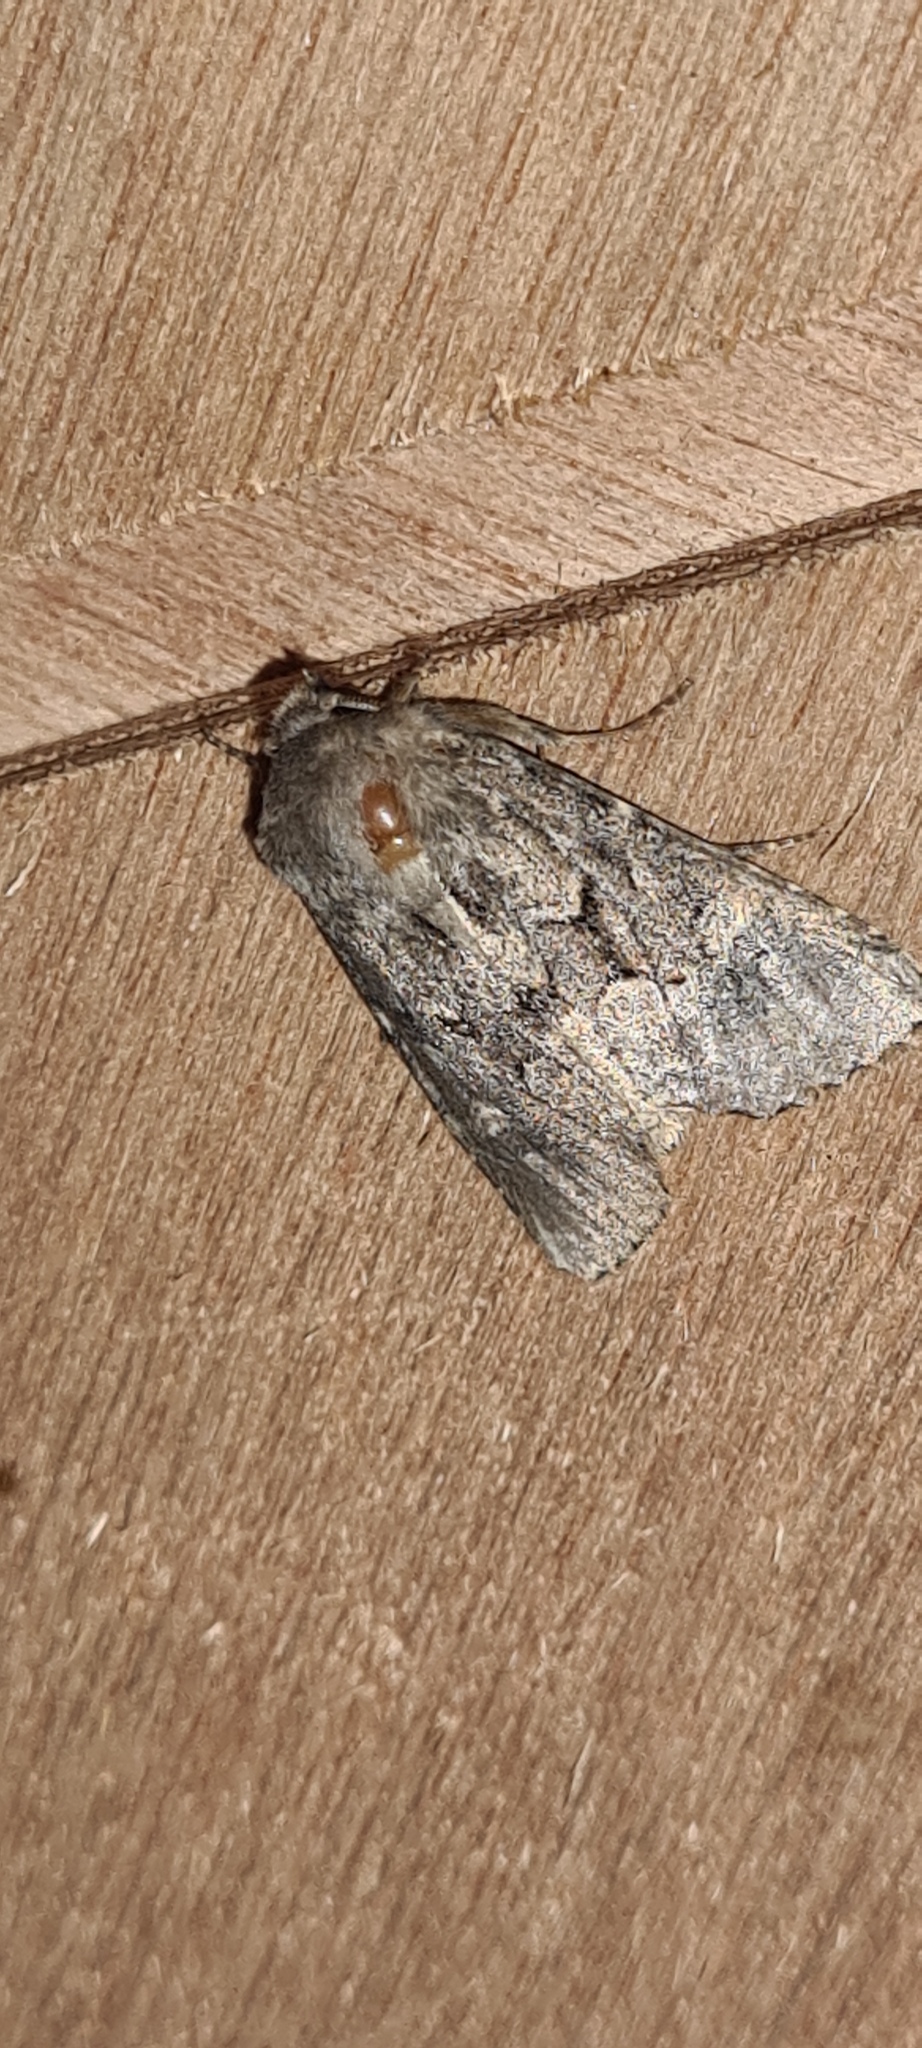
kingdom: Animalia
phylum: Arthropoda
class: Insecta
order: Lepidoptera
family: Noctuidae
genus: Luperina
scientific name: Luperina testacea
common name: Flounced rustic
